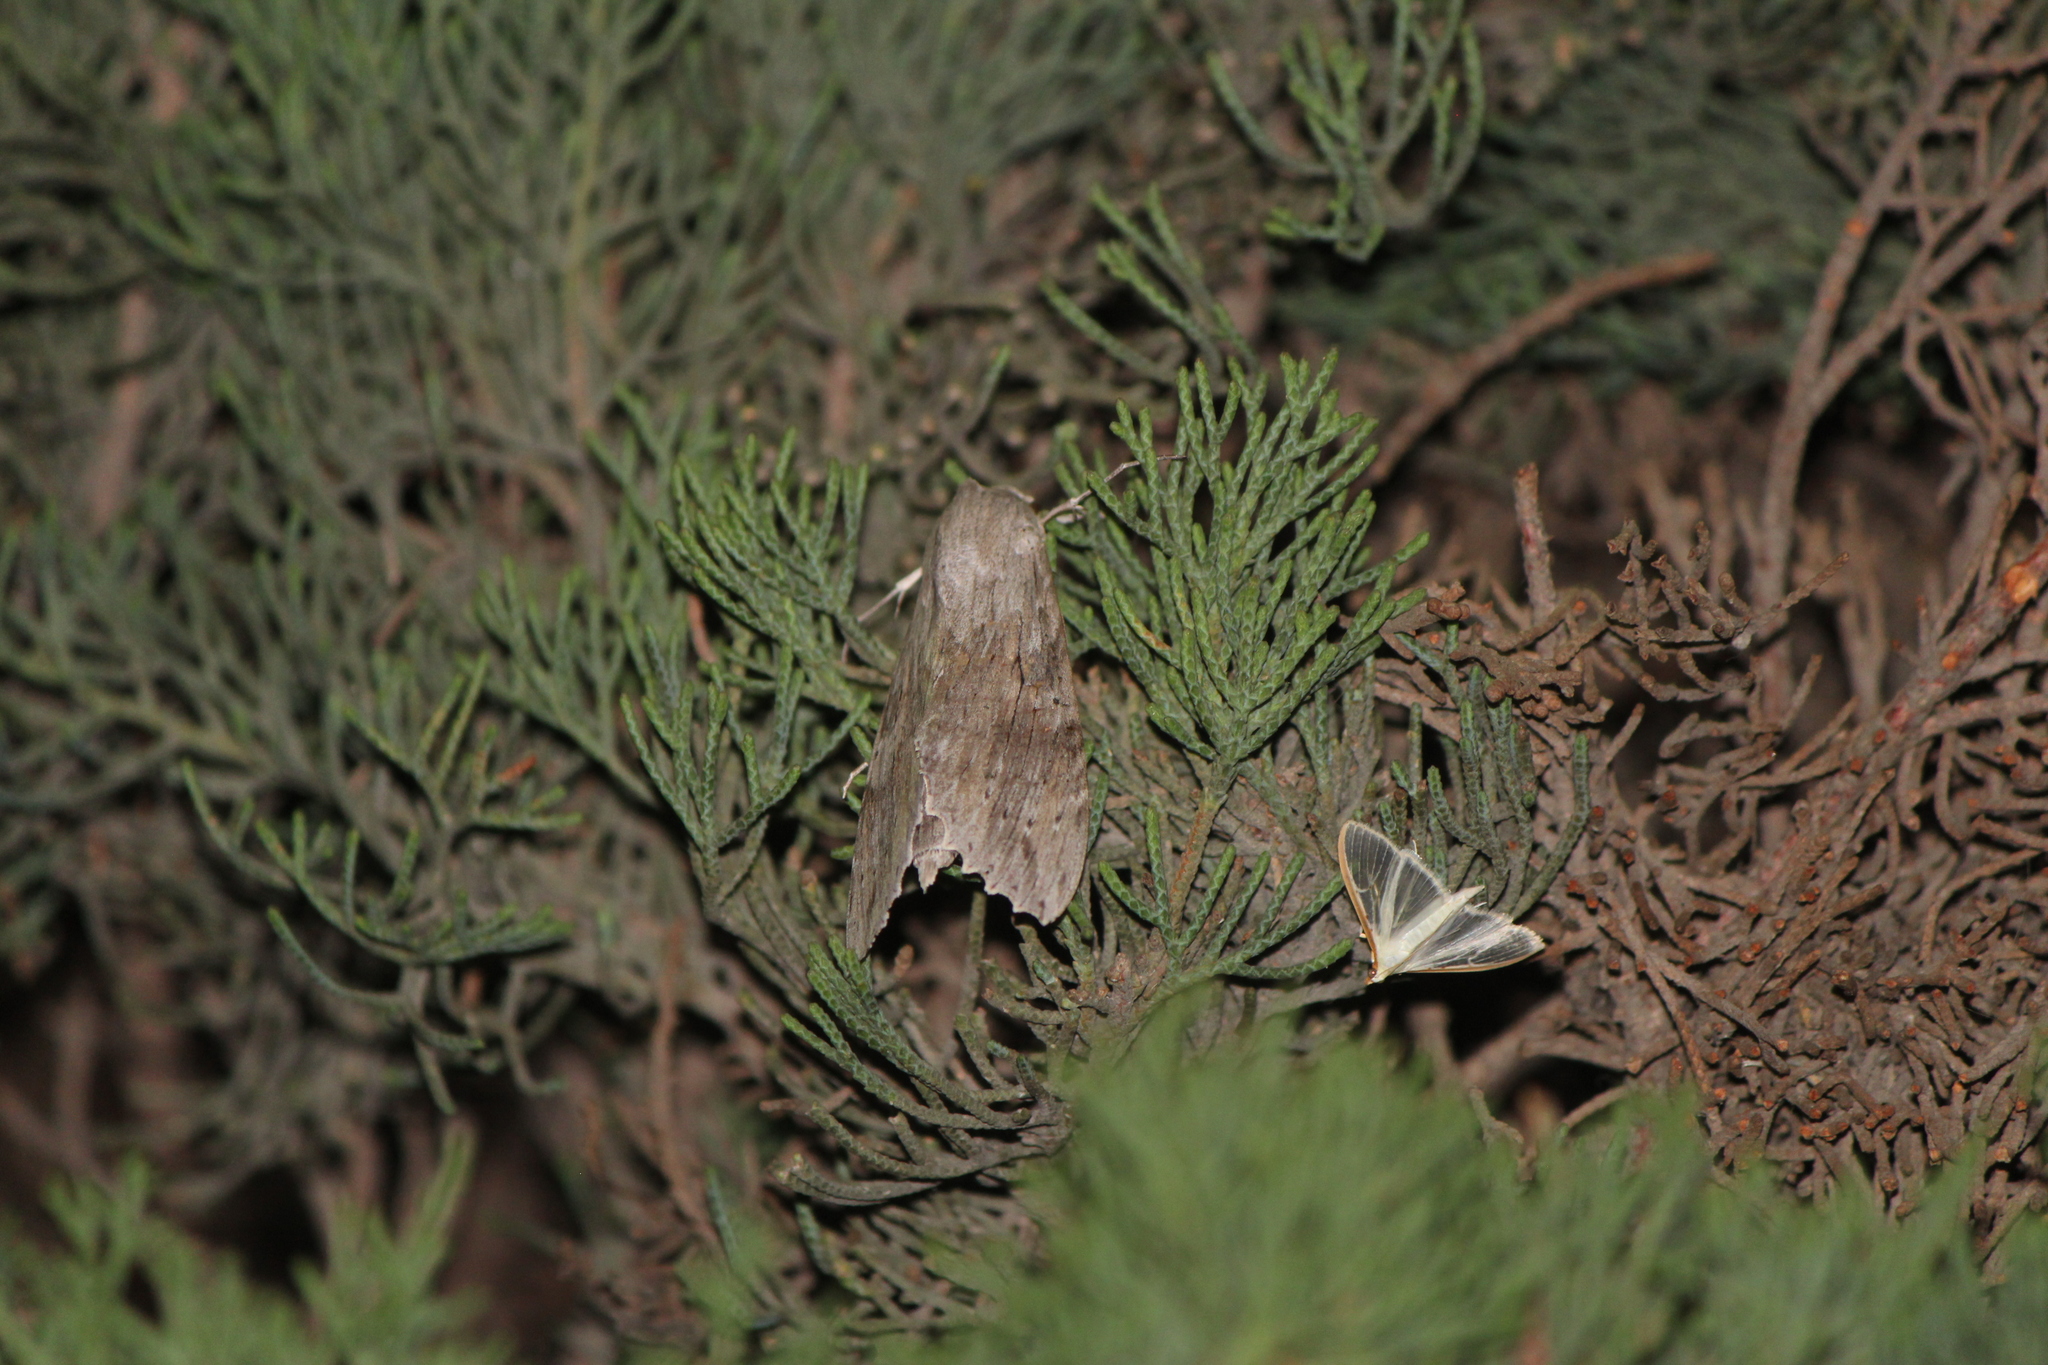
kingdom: Animalia
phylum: Arthropoda
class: Insecta
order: Lepidoptera
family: Sphingidae
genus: Erinnyis
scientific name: Erinnyis ello
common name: Ello sphinx
